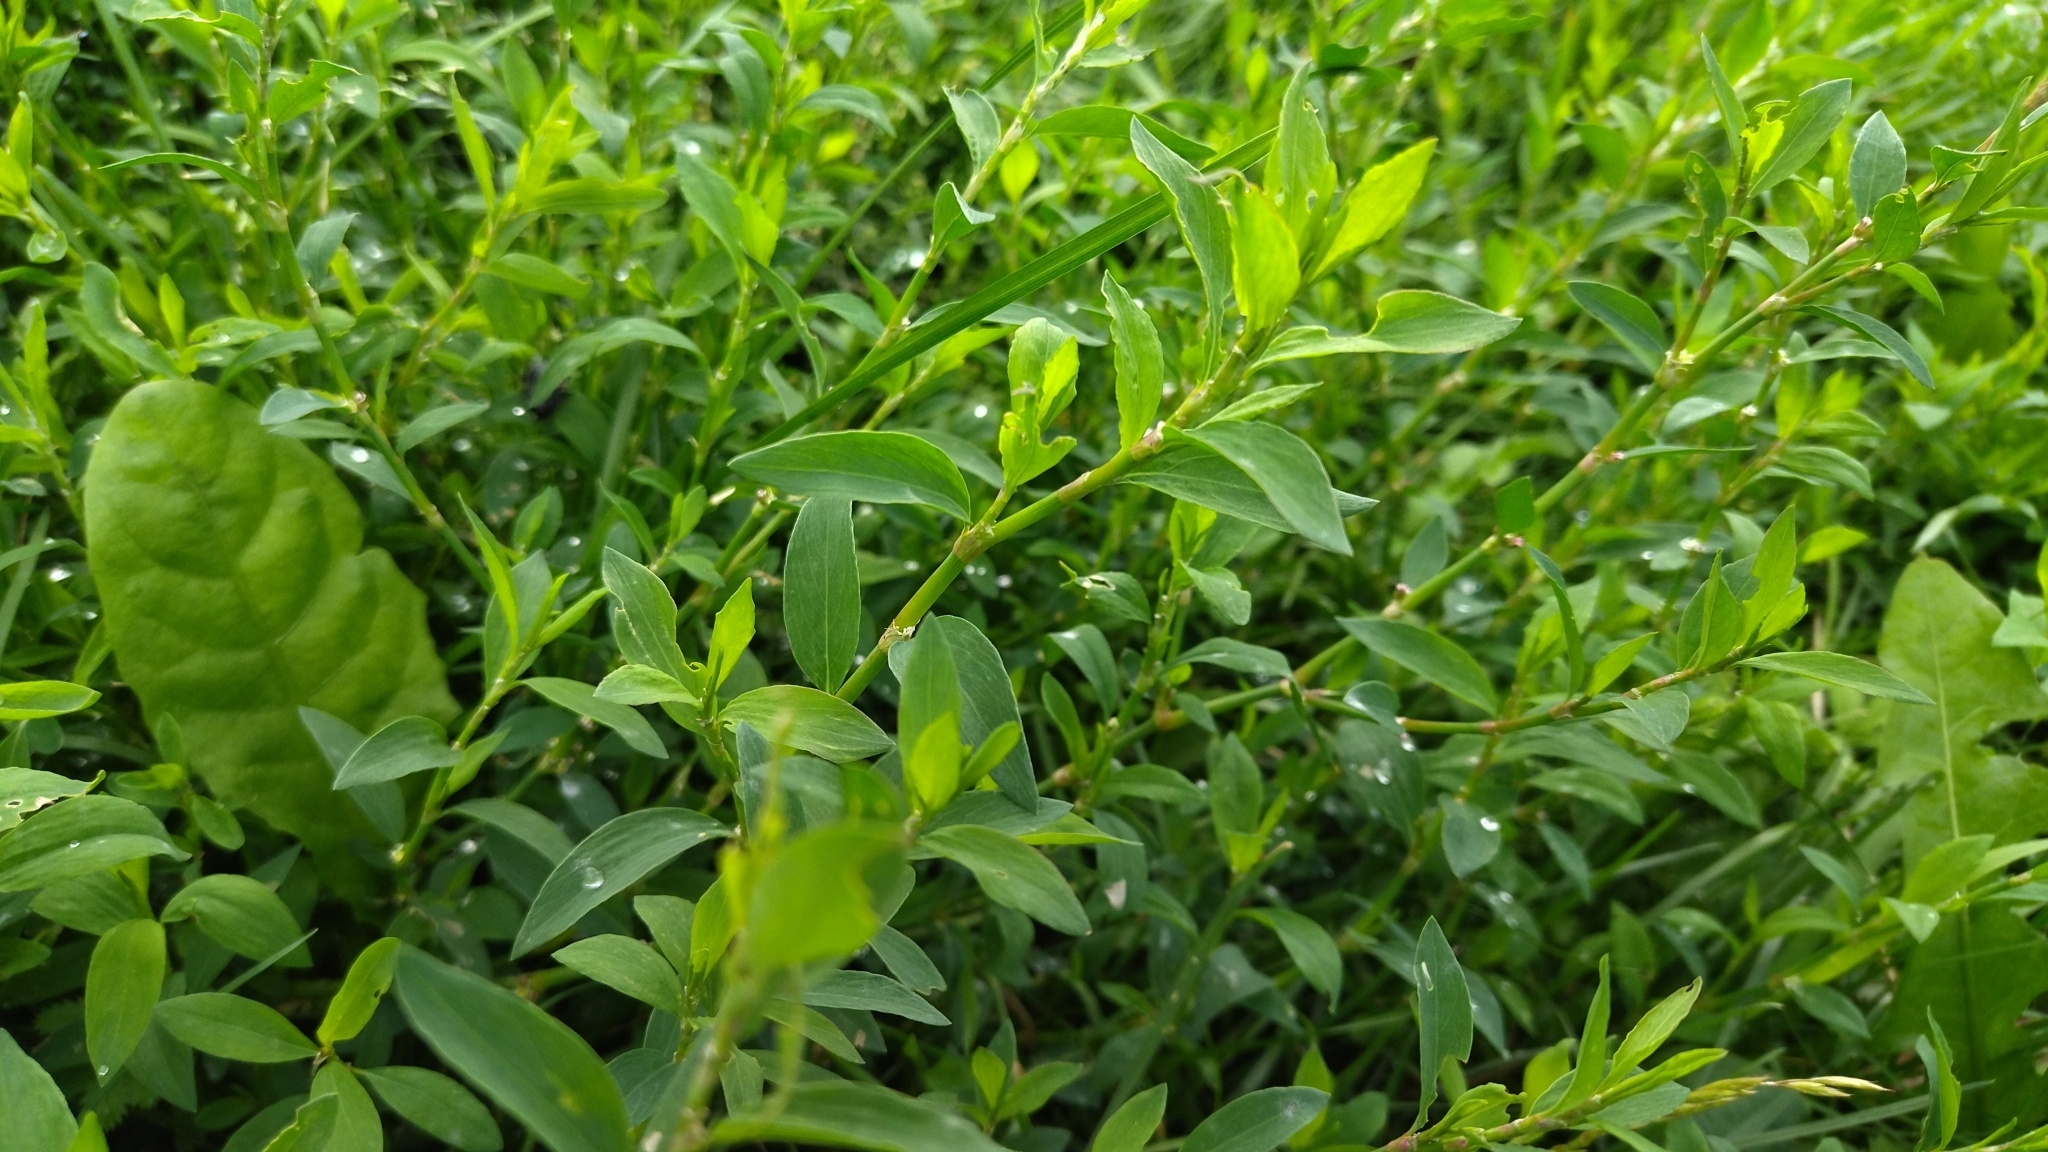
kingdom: Plantae
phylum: Tracheophyta
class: Magnoliopsida
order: Caryophyllales
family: Polygonaceae
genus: Polygonum
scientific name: Polygonum
